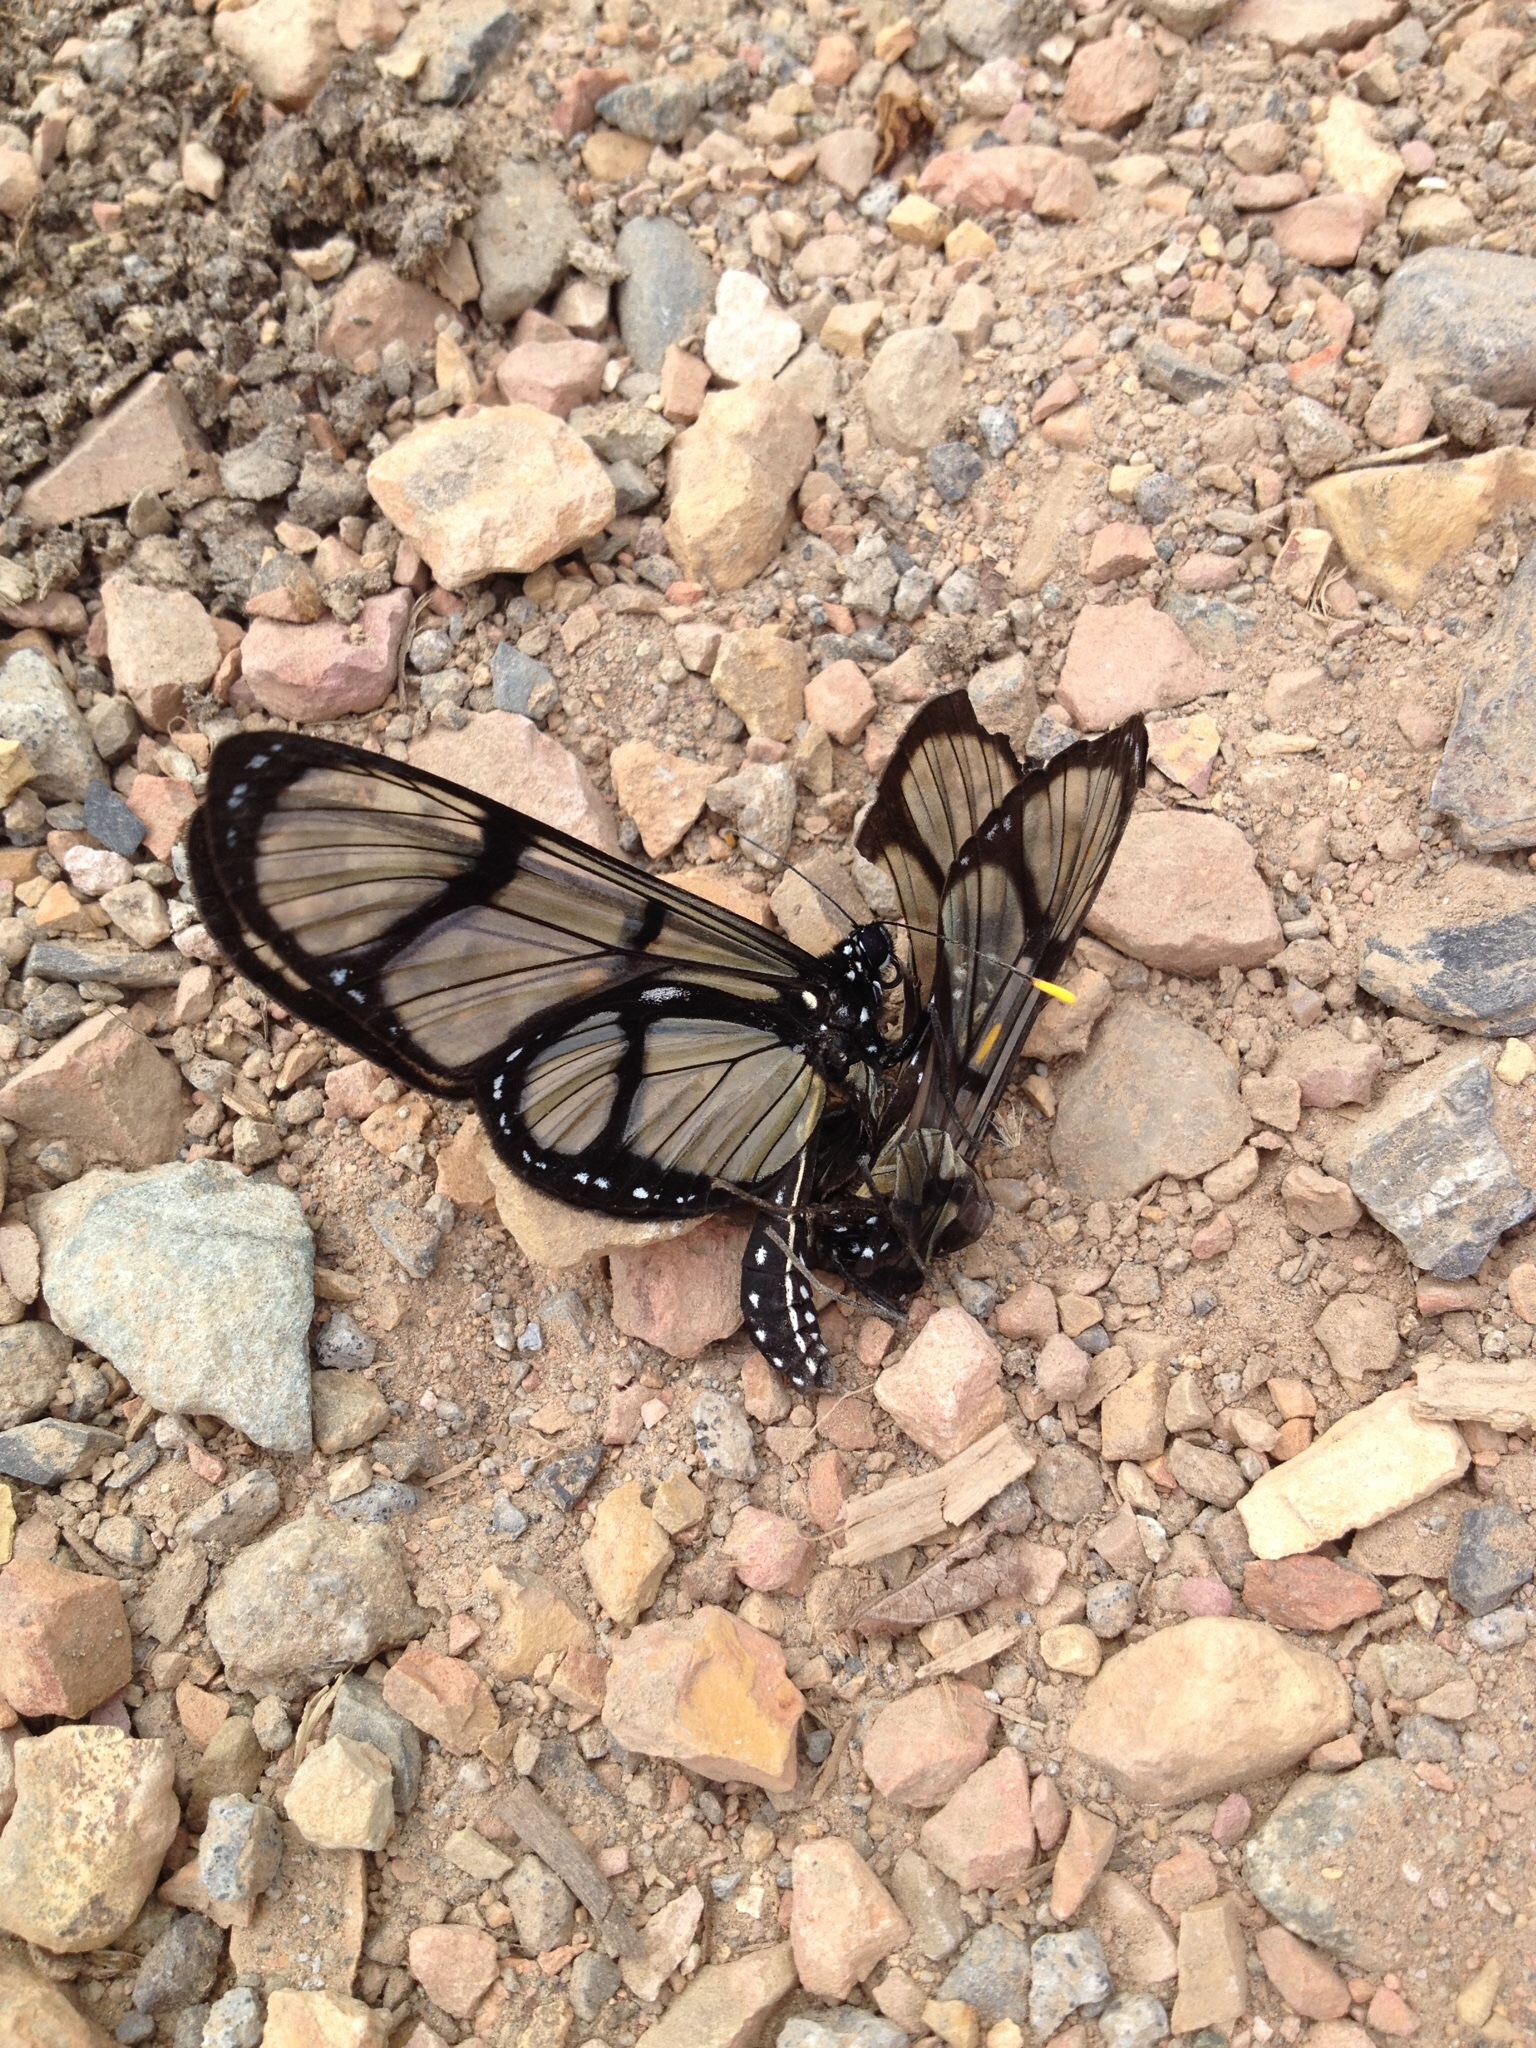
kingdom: Animalia
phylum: Arthropoda
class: Insecta
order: Lepidoptera
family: Nymphalidae
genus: Methona
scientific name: Methona confusa
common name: Confusa tigerwing
